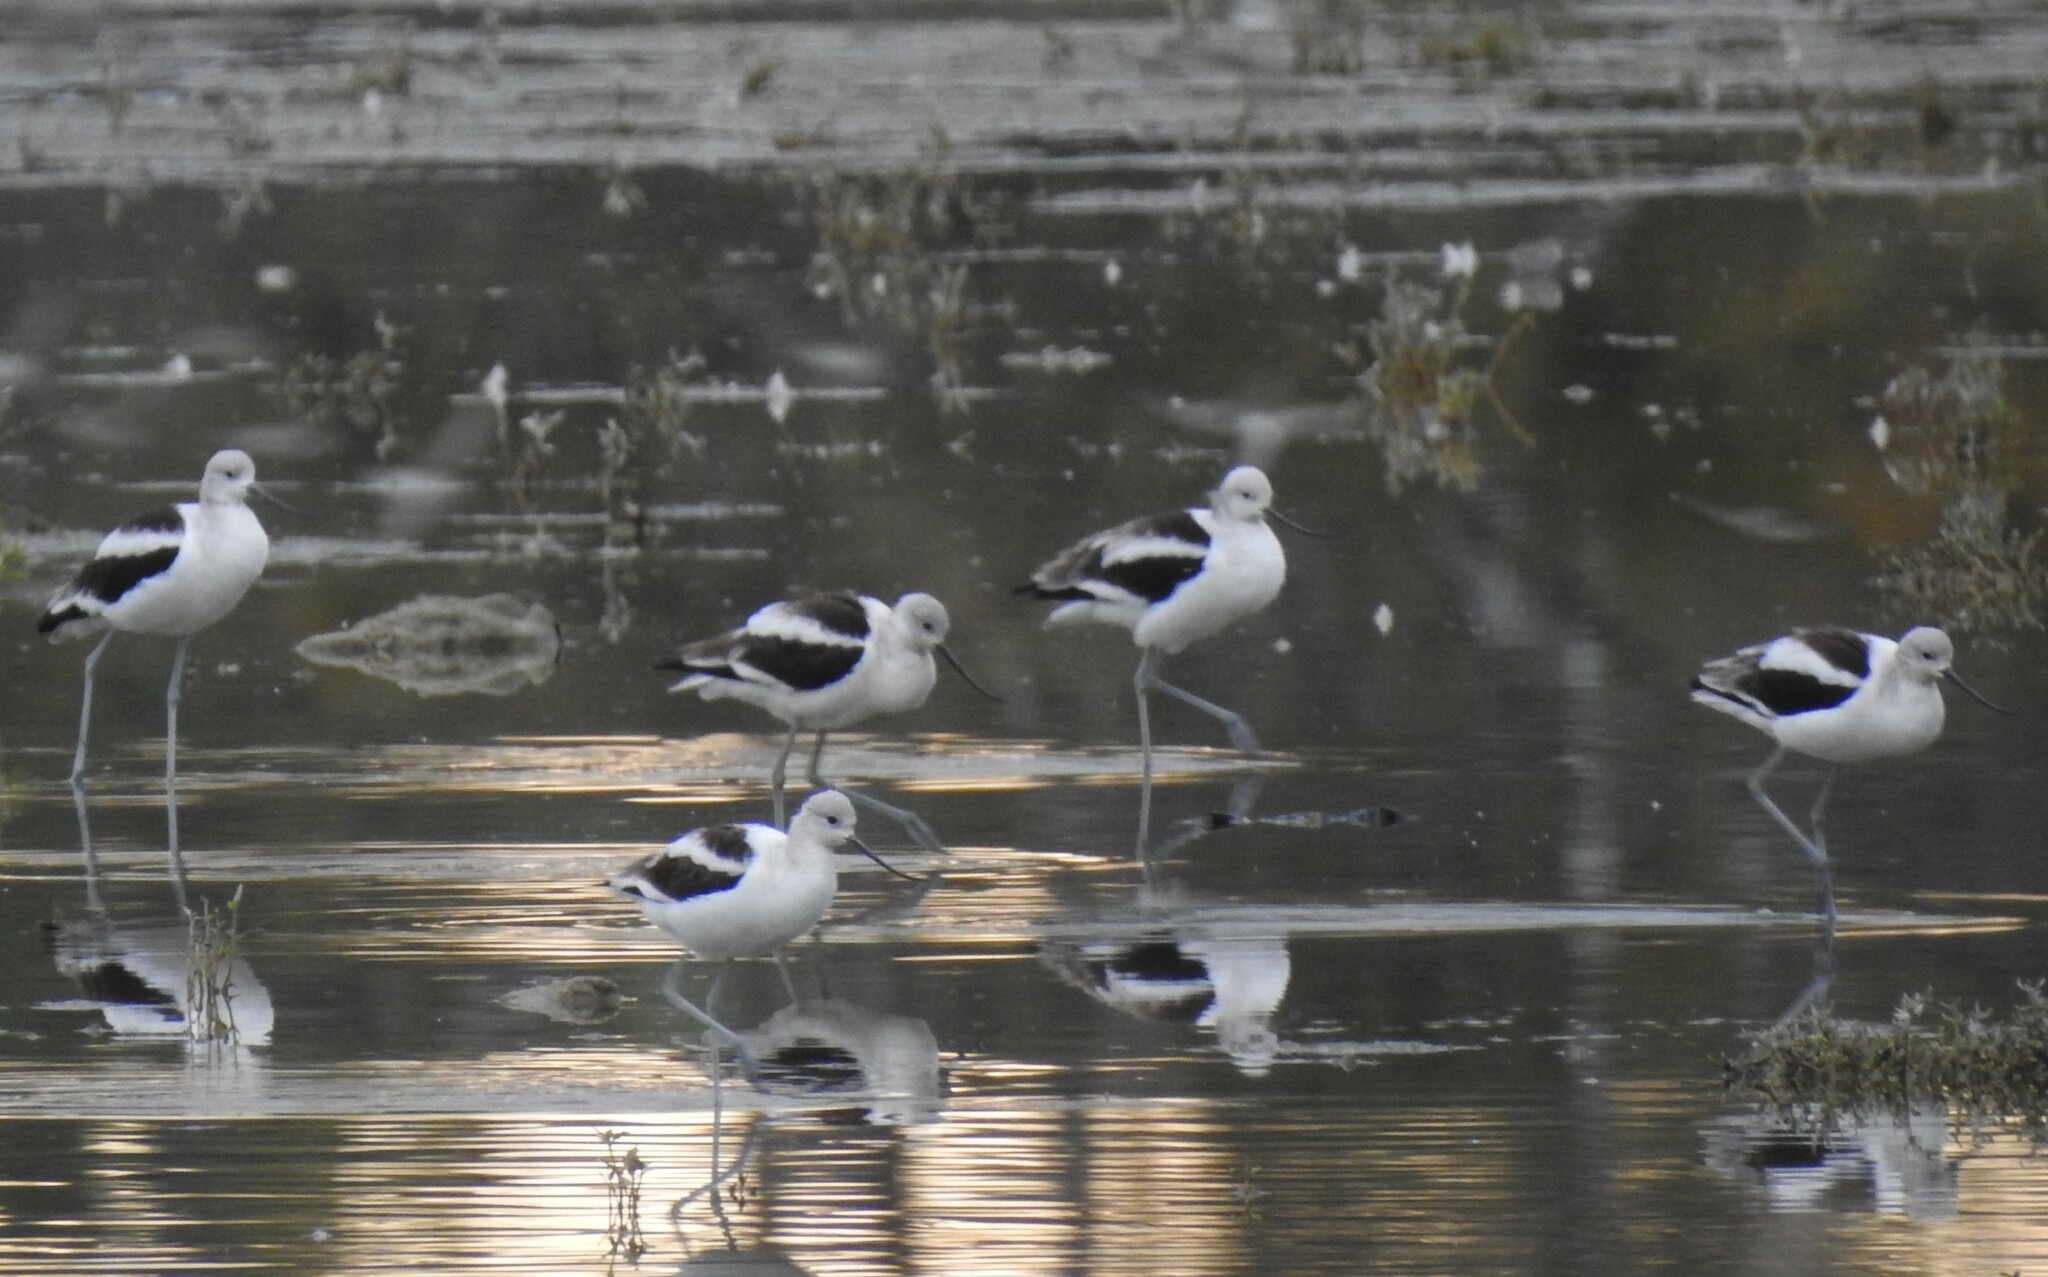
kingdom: Animalia
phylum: Chordata
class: Aves
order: Charadriiformes
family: Recurvirostridae
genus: Recurvirostra
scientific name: Recurvirostra americana
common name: American avocet
